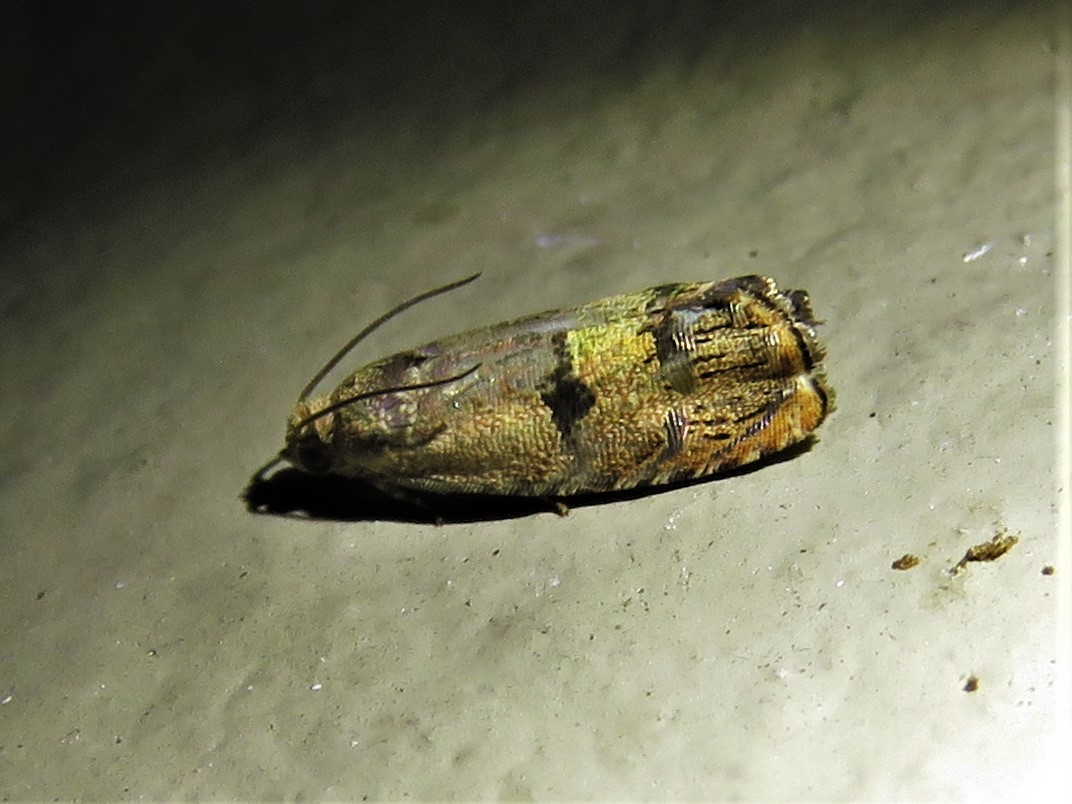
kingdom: Animalia
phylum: Arthropoda
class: Insecta
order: Lepidoptera
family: Tortricidae
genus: Cydia
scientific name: Cydia latiferreana
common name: Filbertworm moth
